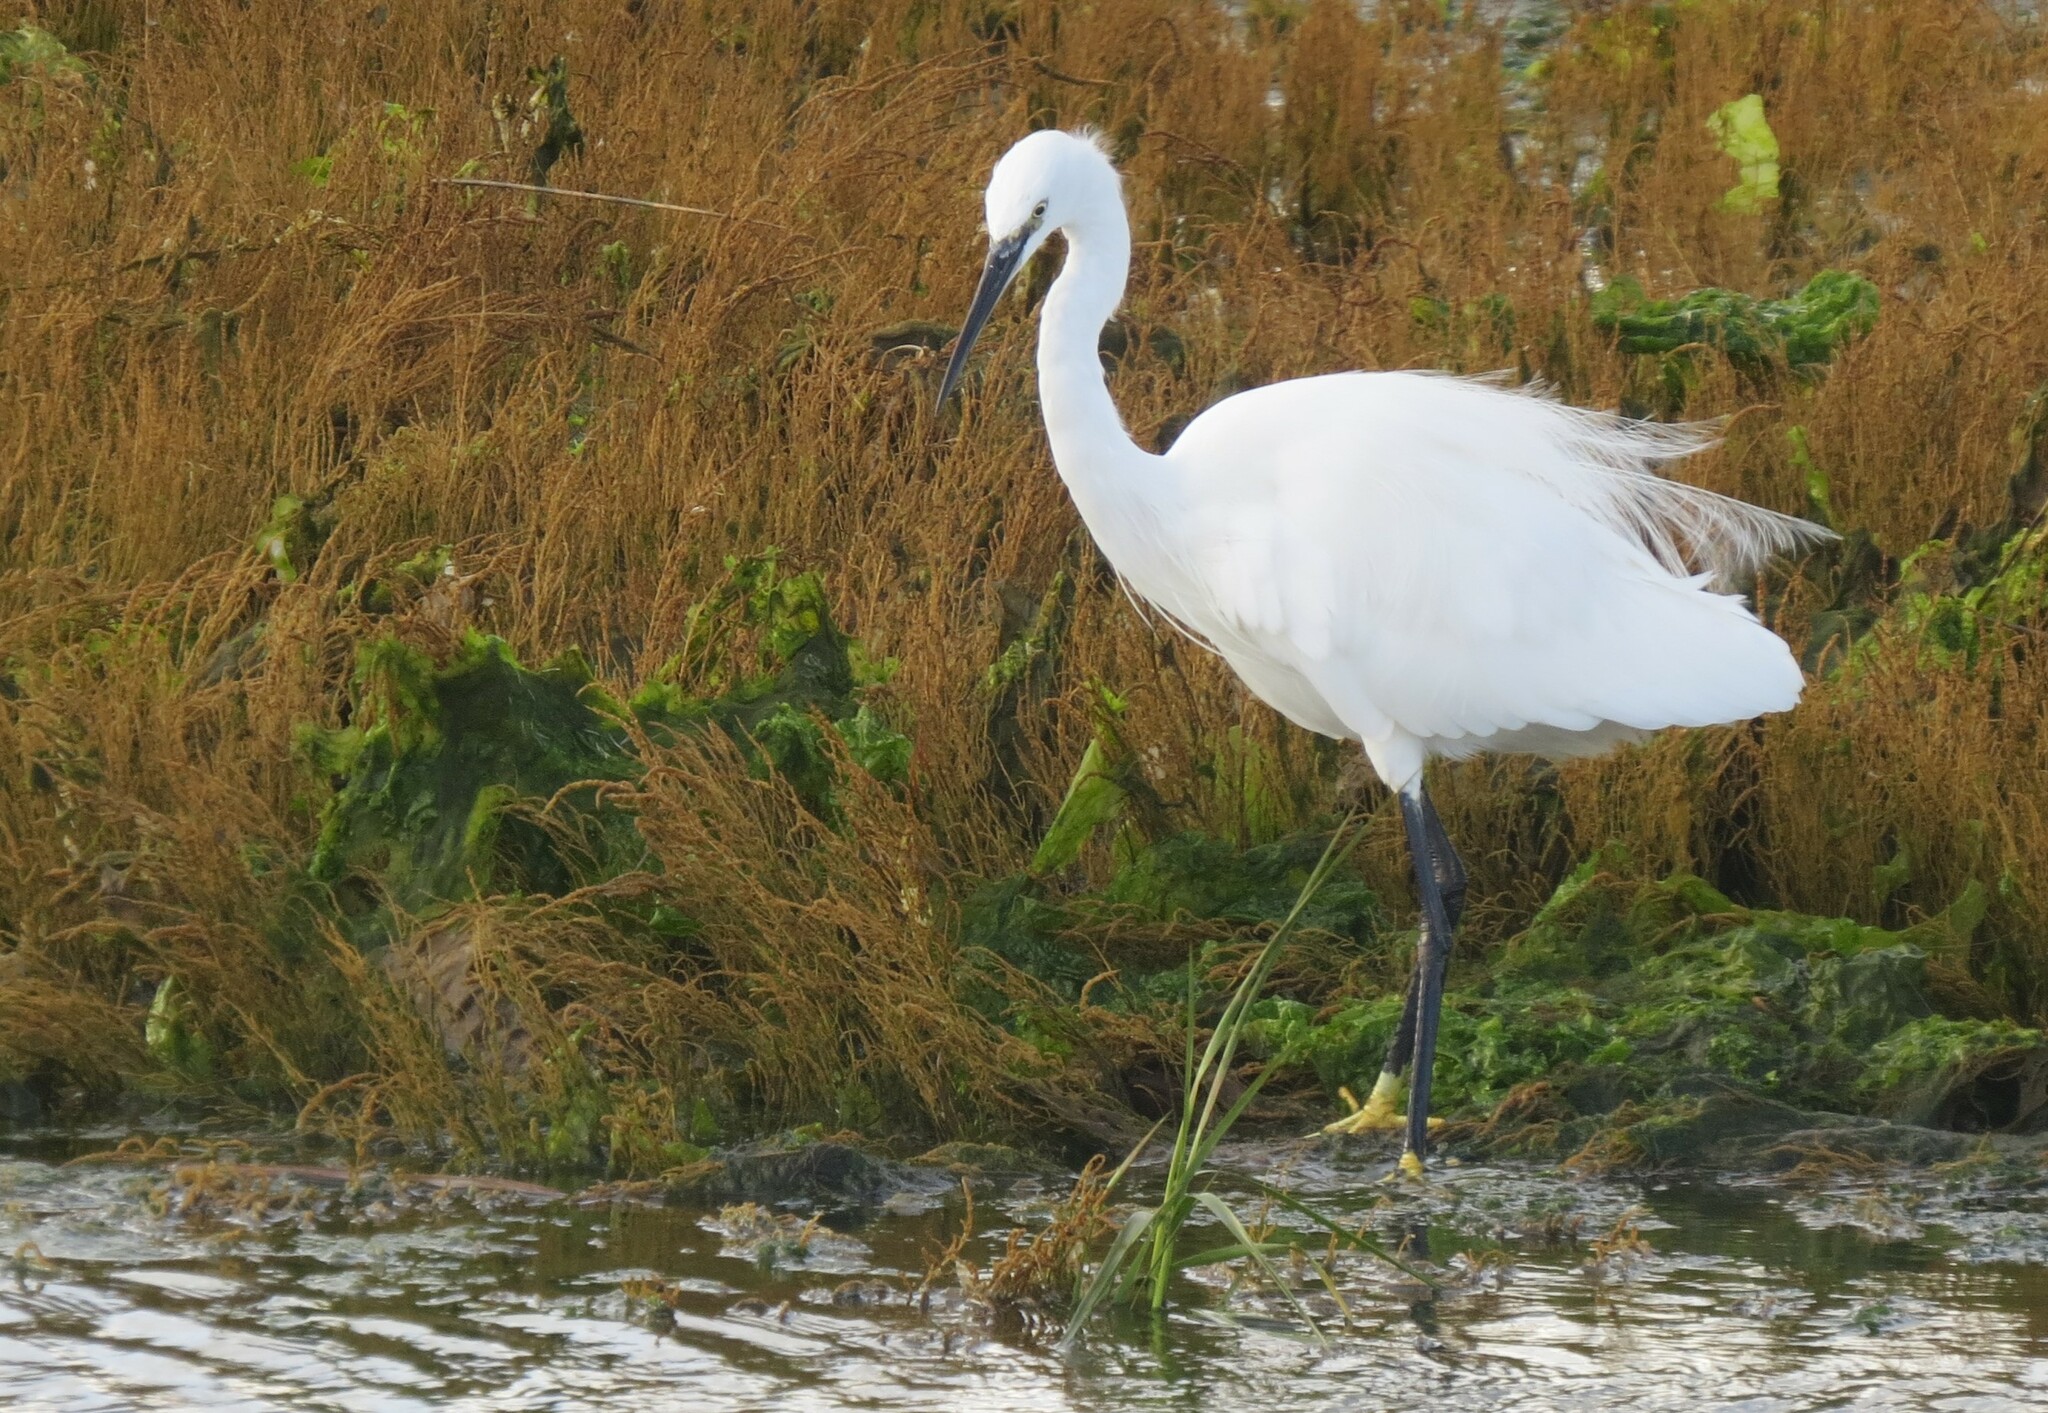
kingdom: Animalia
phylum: Chordata
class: Aves
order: Pelecaniformes
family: Ardeidae
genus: Egretta
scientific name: Egretta garzetta
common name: Little egret
